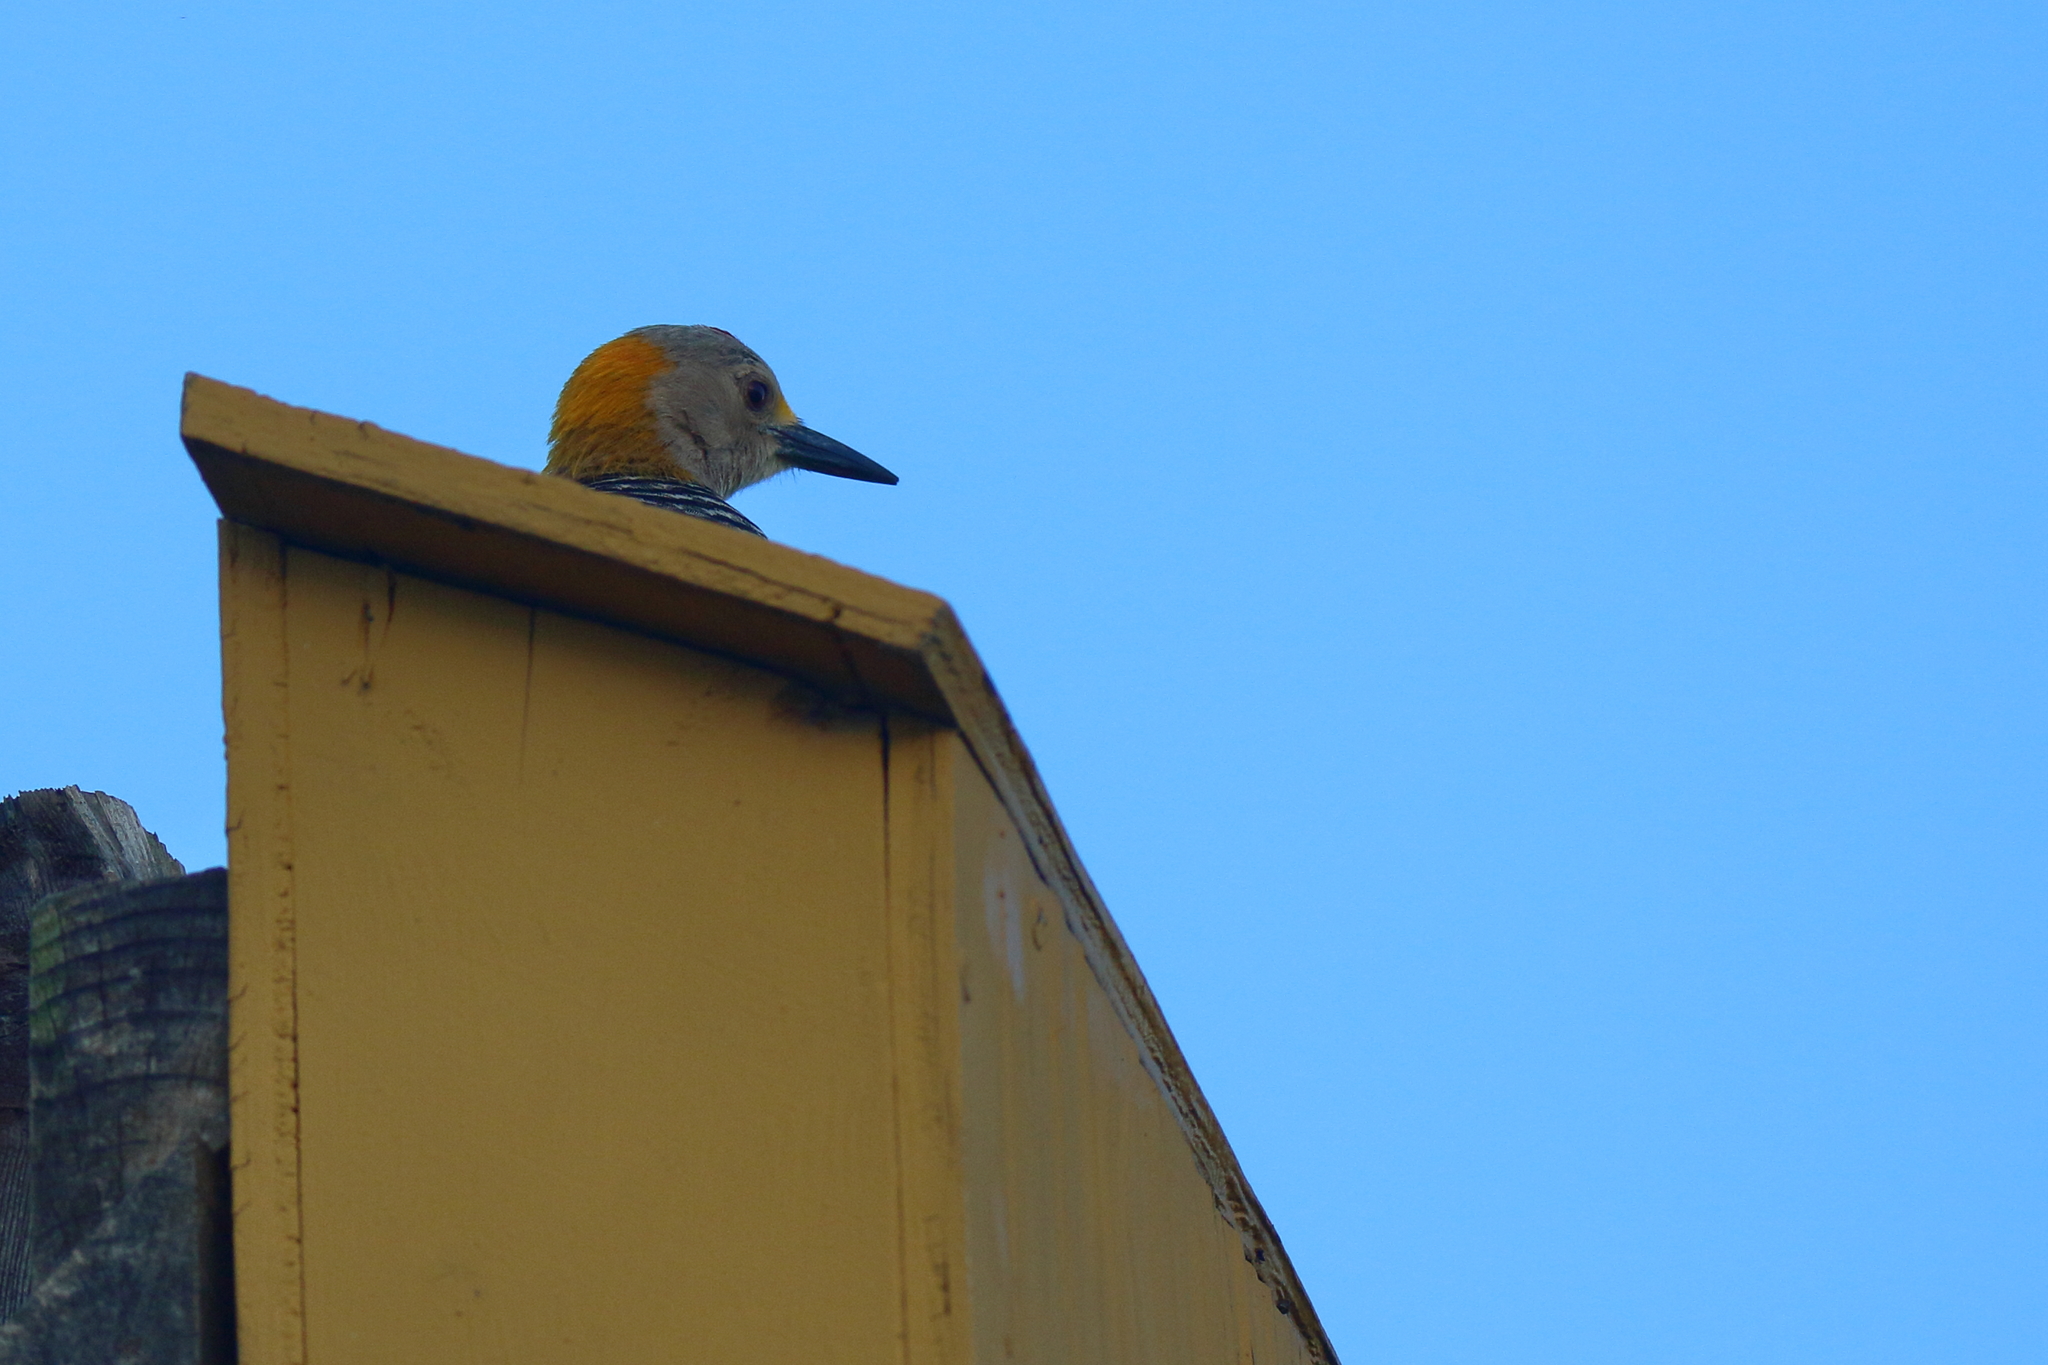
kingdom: Animalia
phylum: Chordata
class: Aves
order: Piciformes
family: Picidae
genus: Melanerpes
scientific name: Melanerpes aurifrons
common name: Golden-fronted woodpecker
